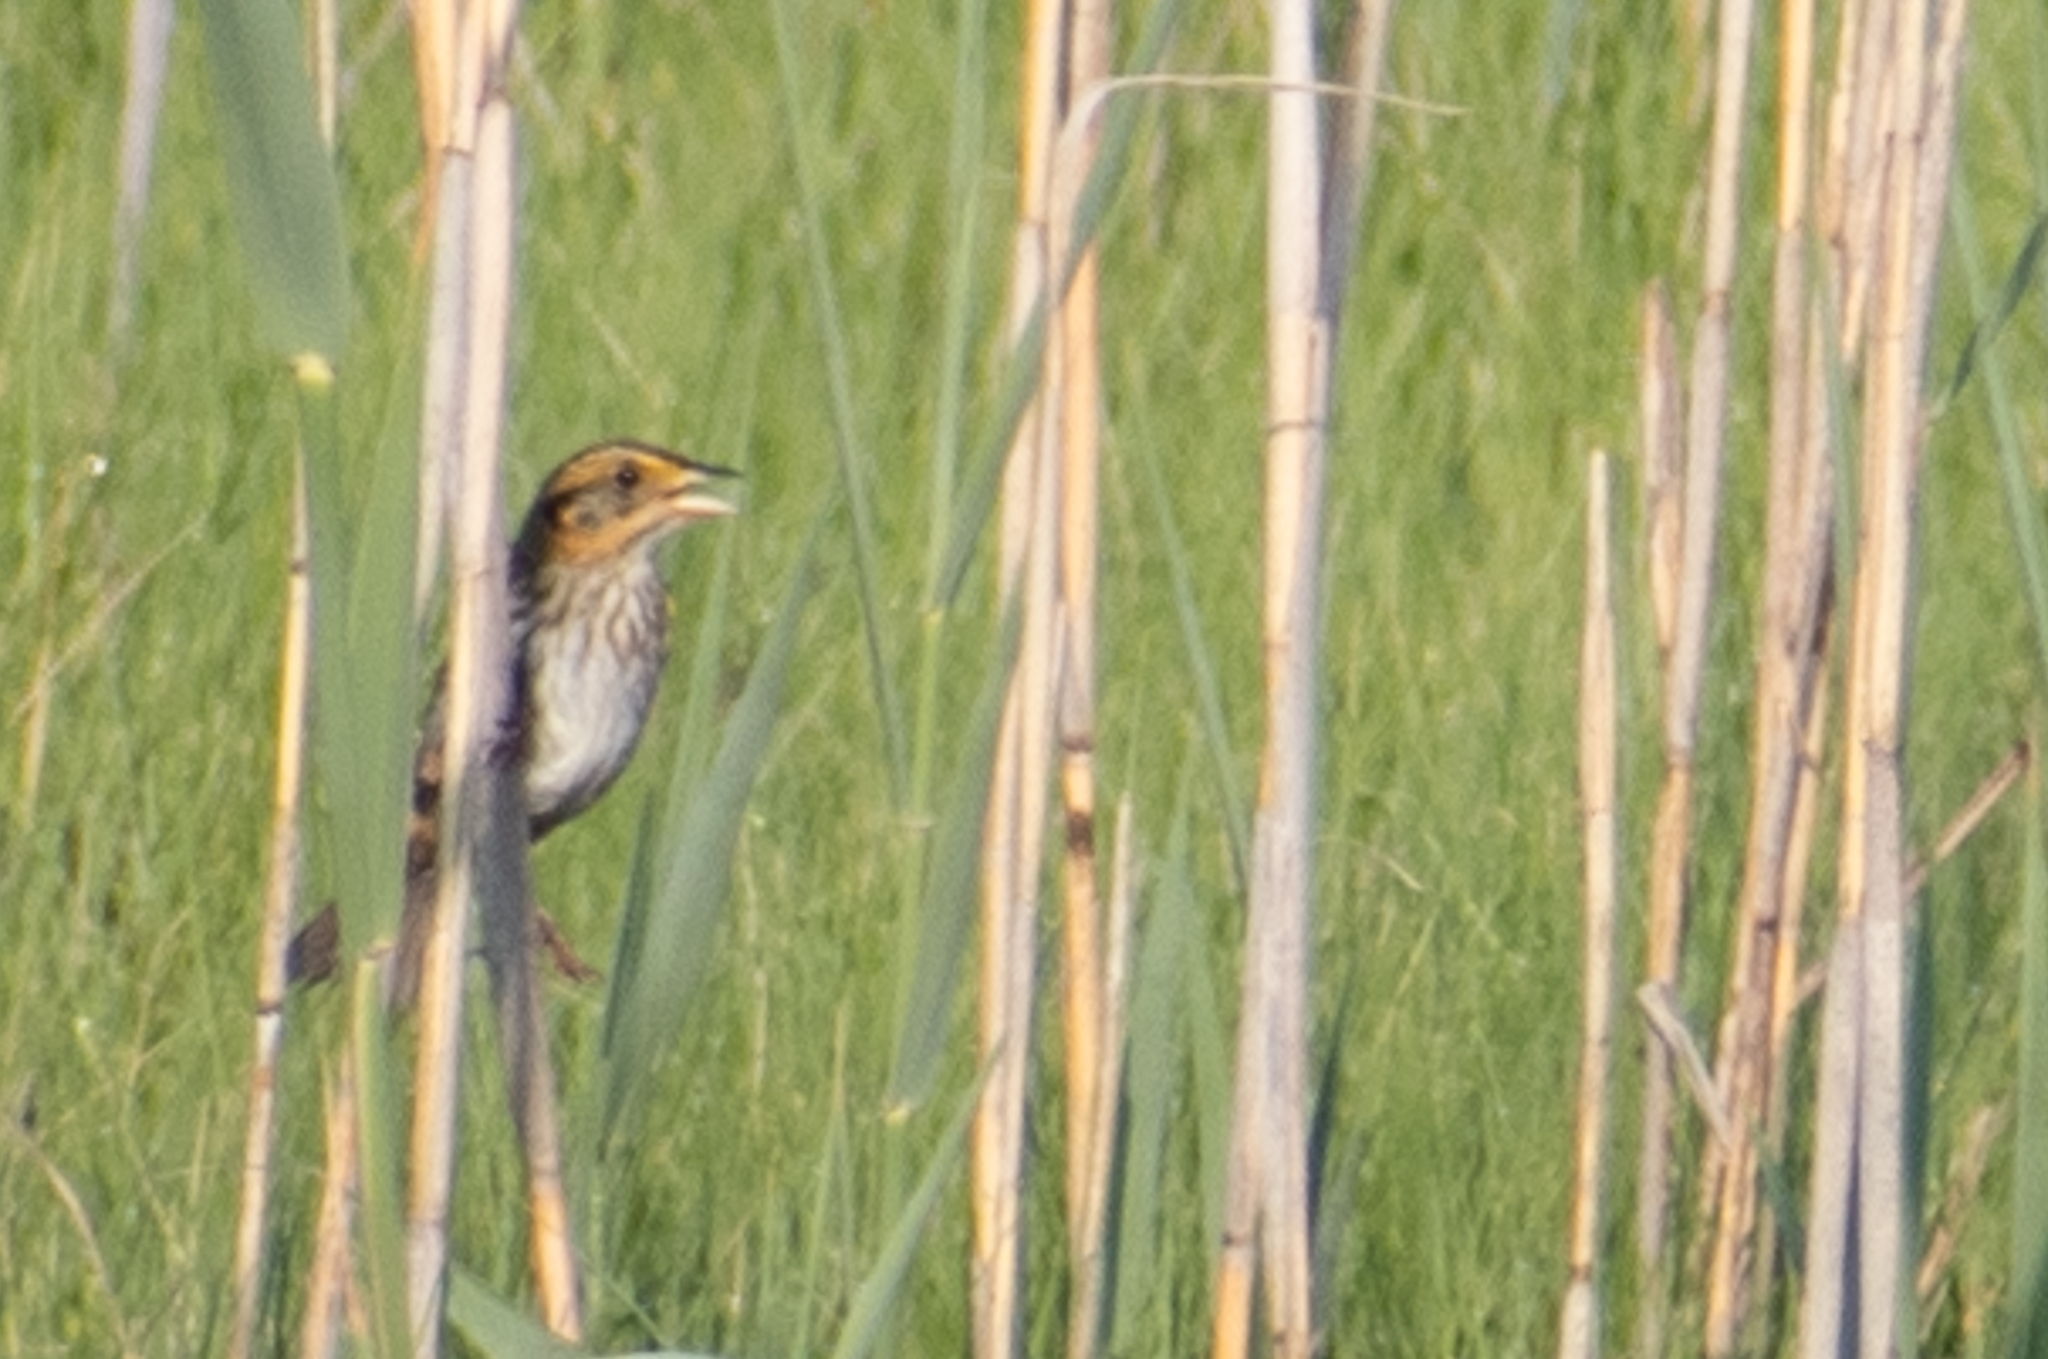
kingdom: Animalia
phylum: Chordata
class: Aves
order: Passeriformes
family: Passerellidae
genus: Ammospiza
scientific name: Ammospiza caudacuta
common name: Saltmarsh sparrow
